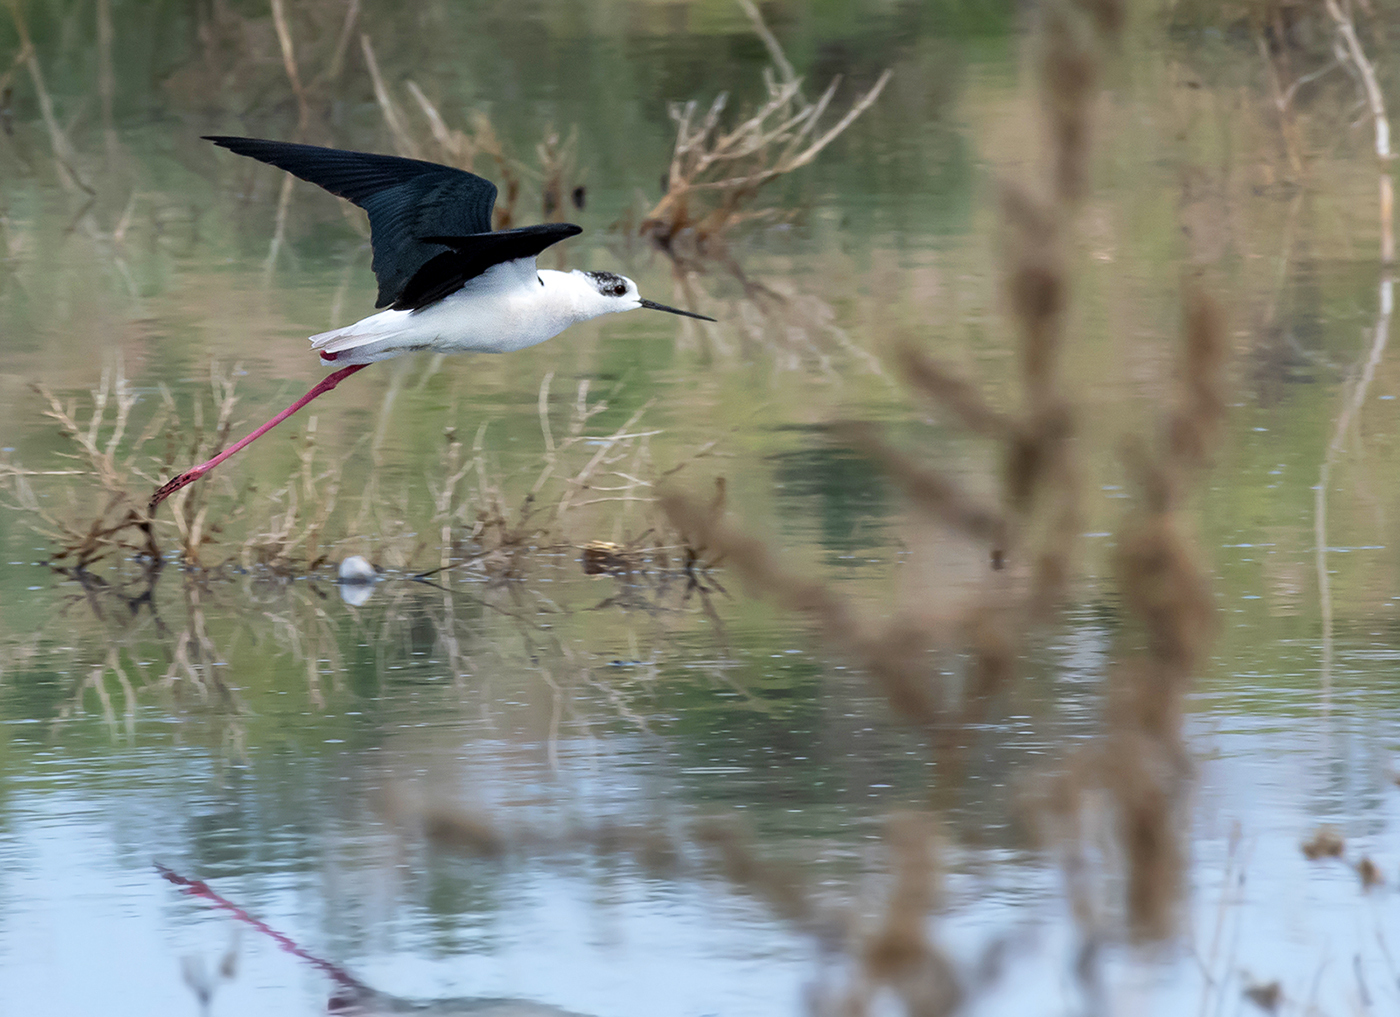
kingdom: Animalia
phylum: Chordata
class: Aves
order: Charadriiformes
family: Recurvirostridae
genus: Himantopus
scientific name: Himantopus himantopus
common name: Black-winged stilt
